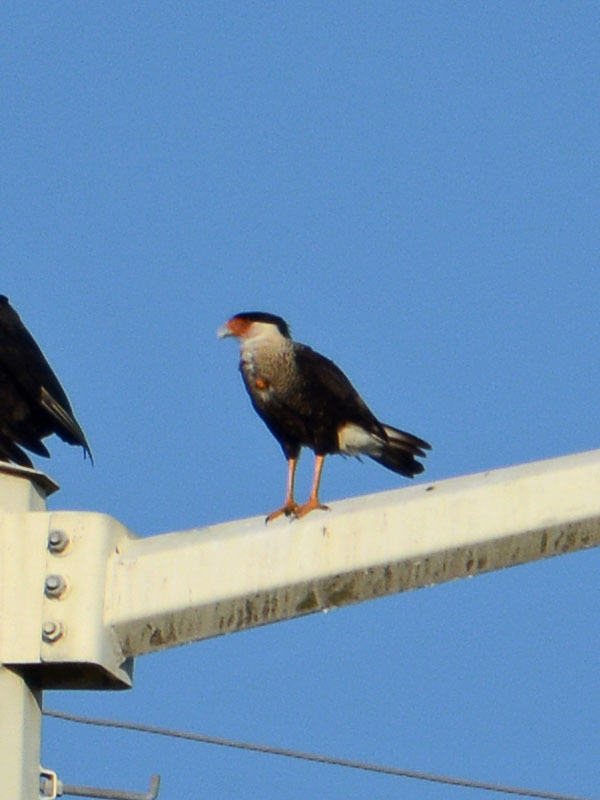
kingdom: Animalia
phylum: Chordata
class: Aves
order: Falconiformes
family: Falconidae
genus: Caracara
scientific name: Caracara plancus
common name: Southern caracara
